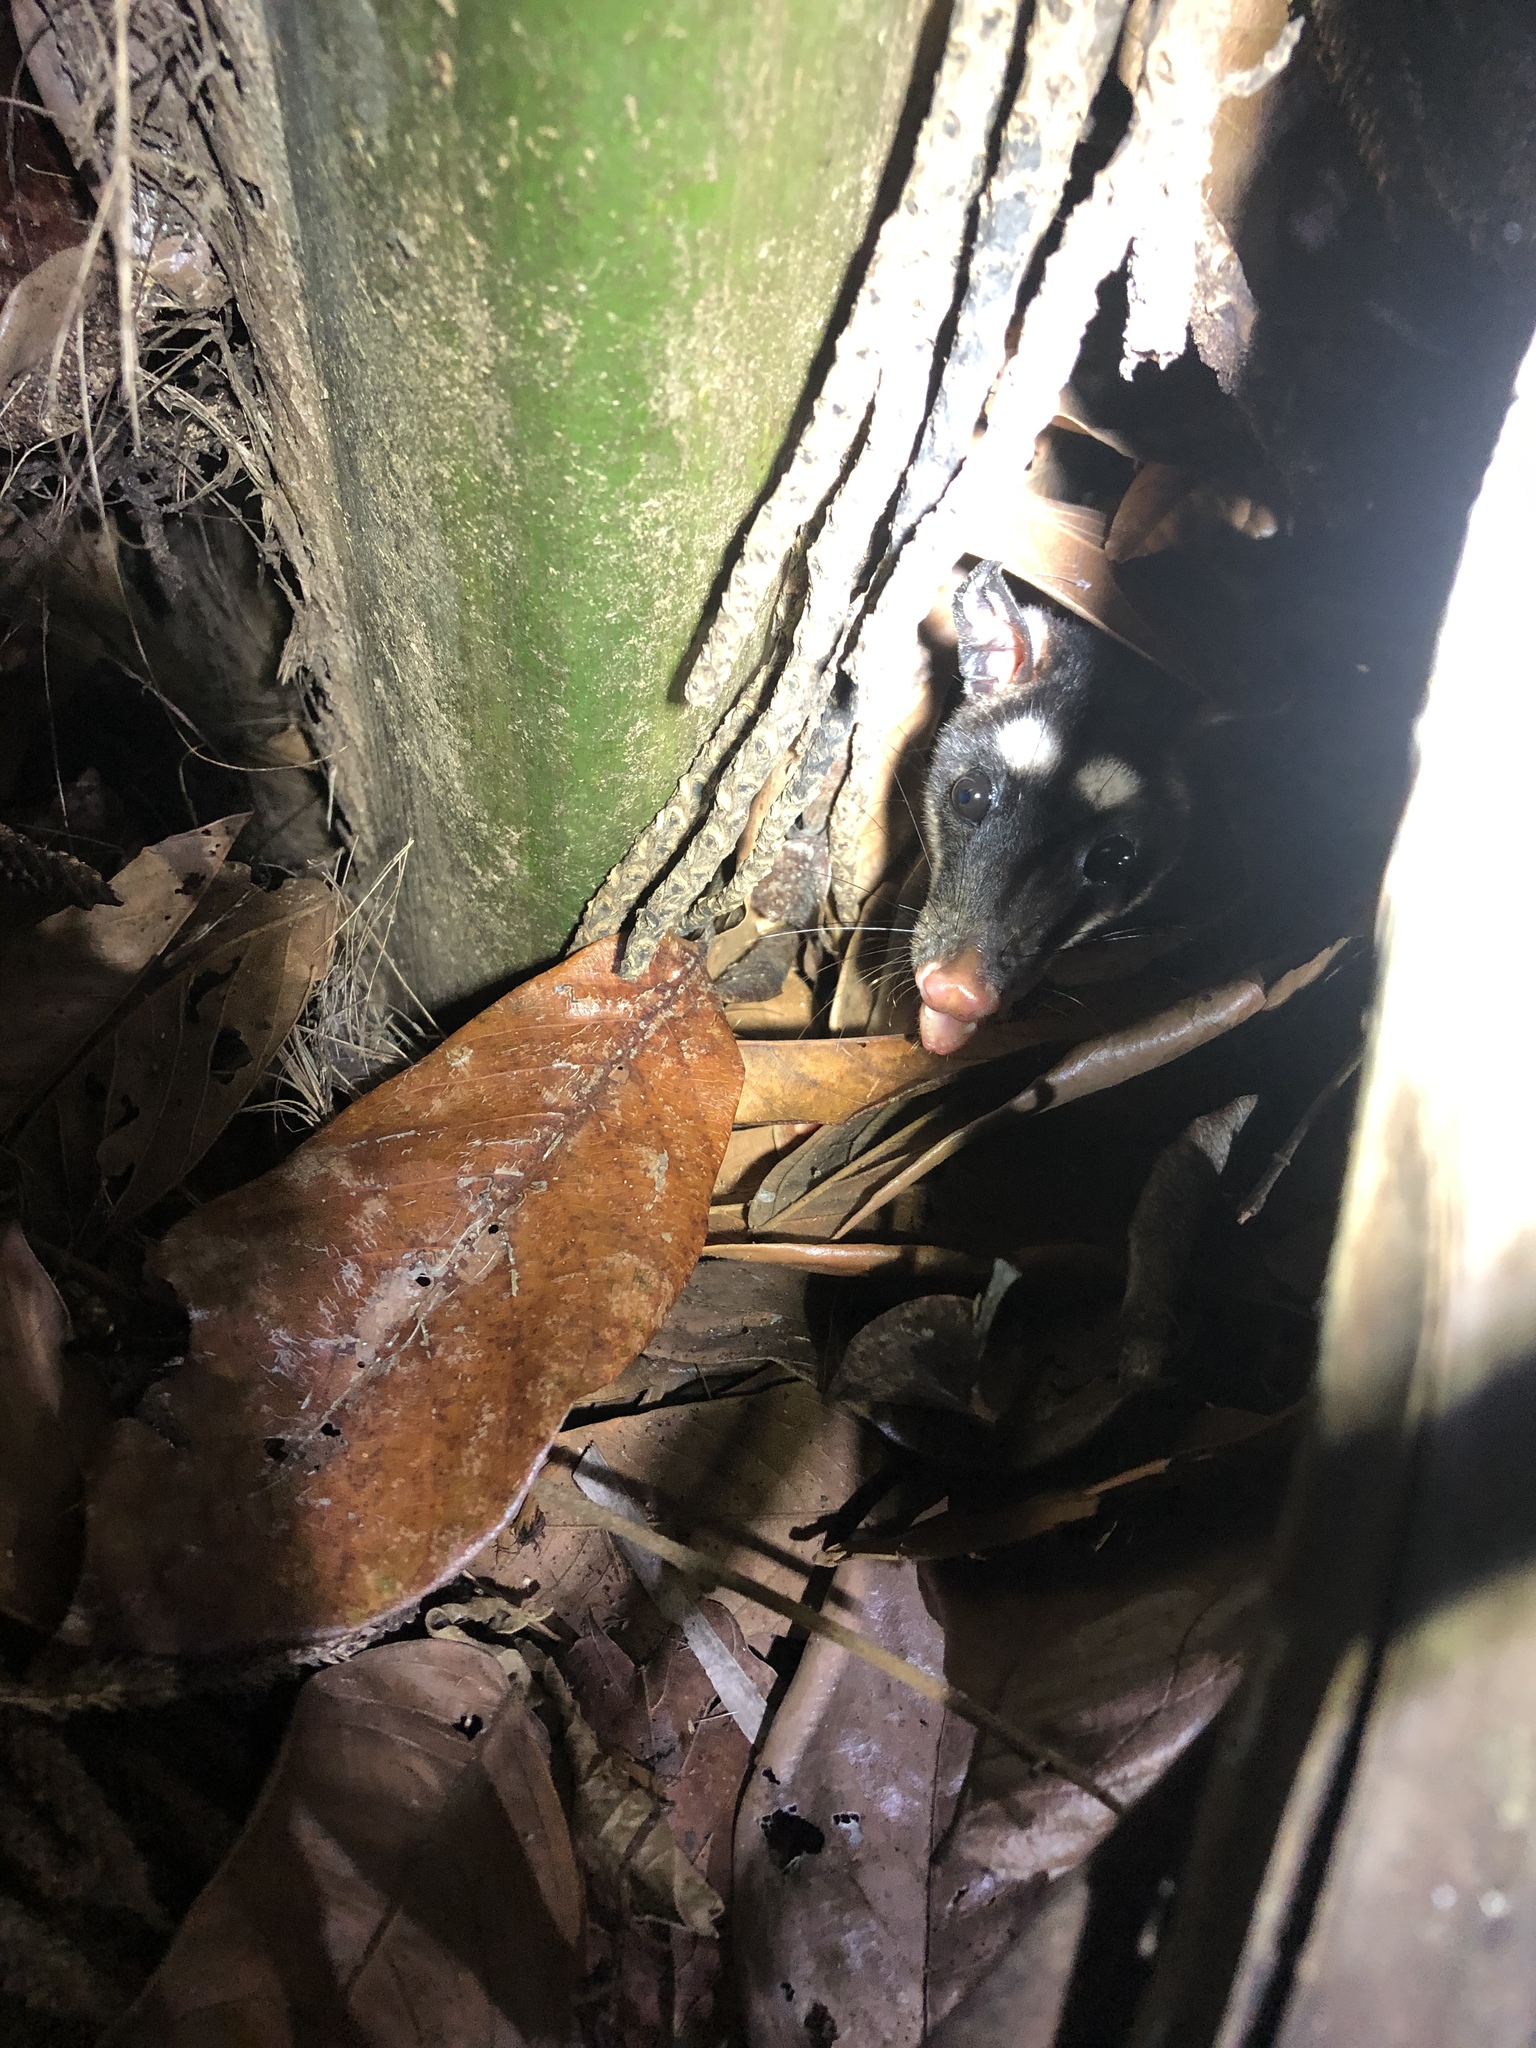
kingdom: Animalia
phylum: Chordata
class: Mammalia
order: Didelphimorphia
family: Didelphidae
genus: Philander
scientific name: Philander
